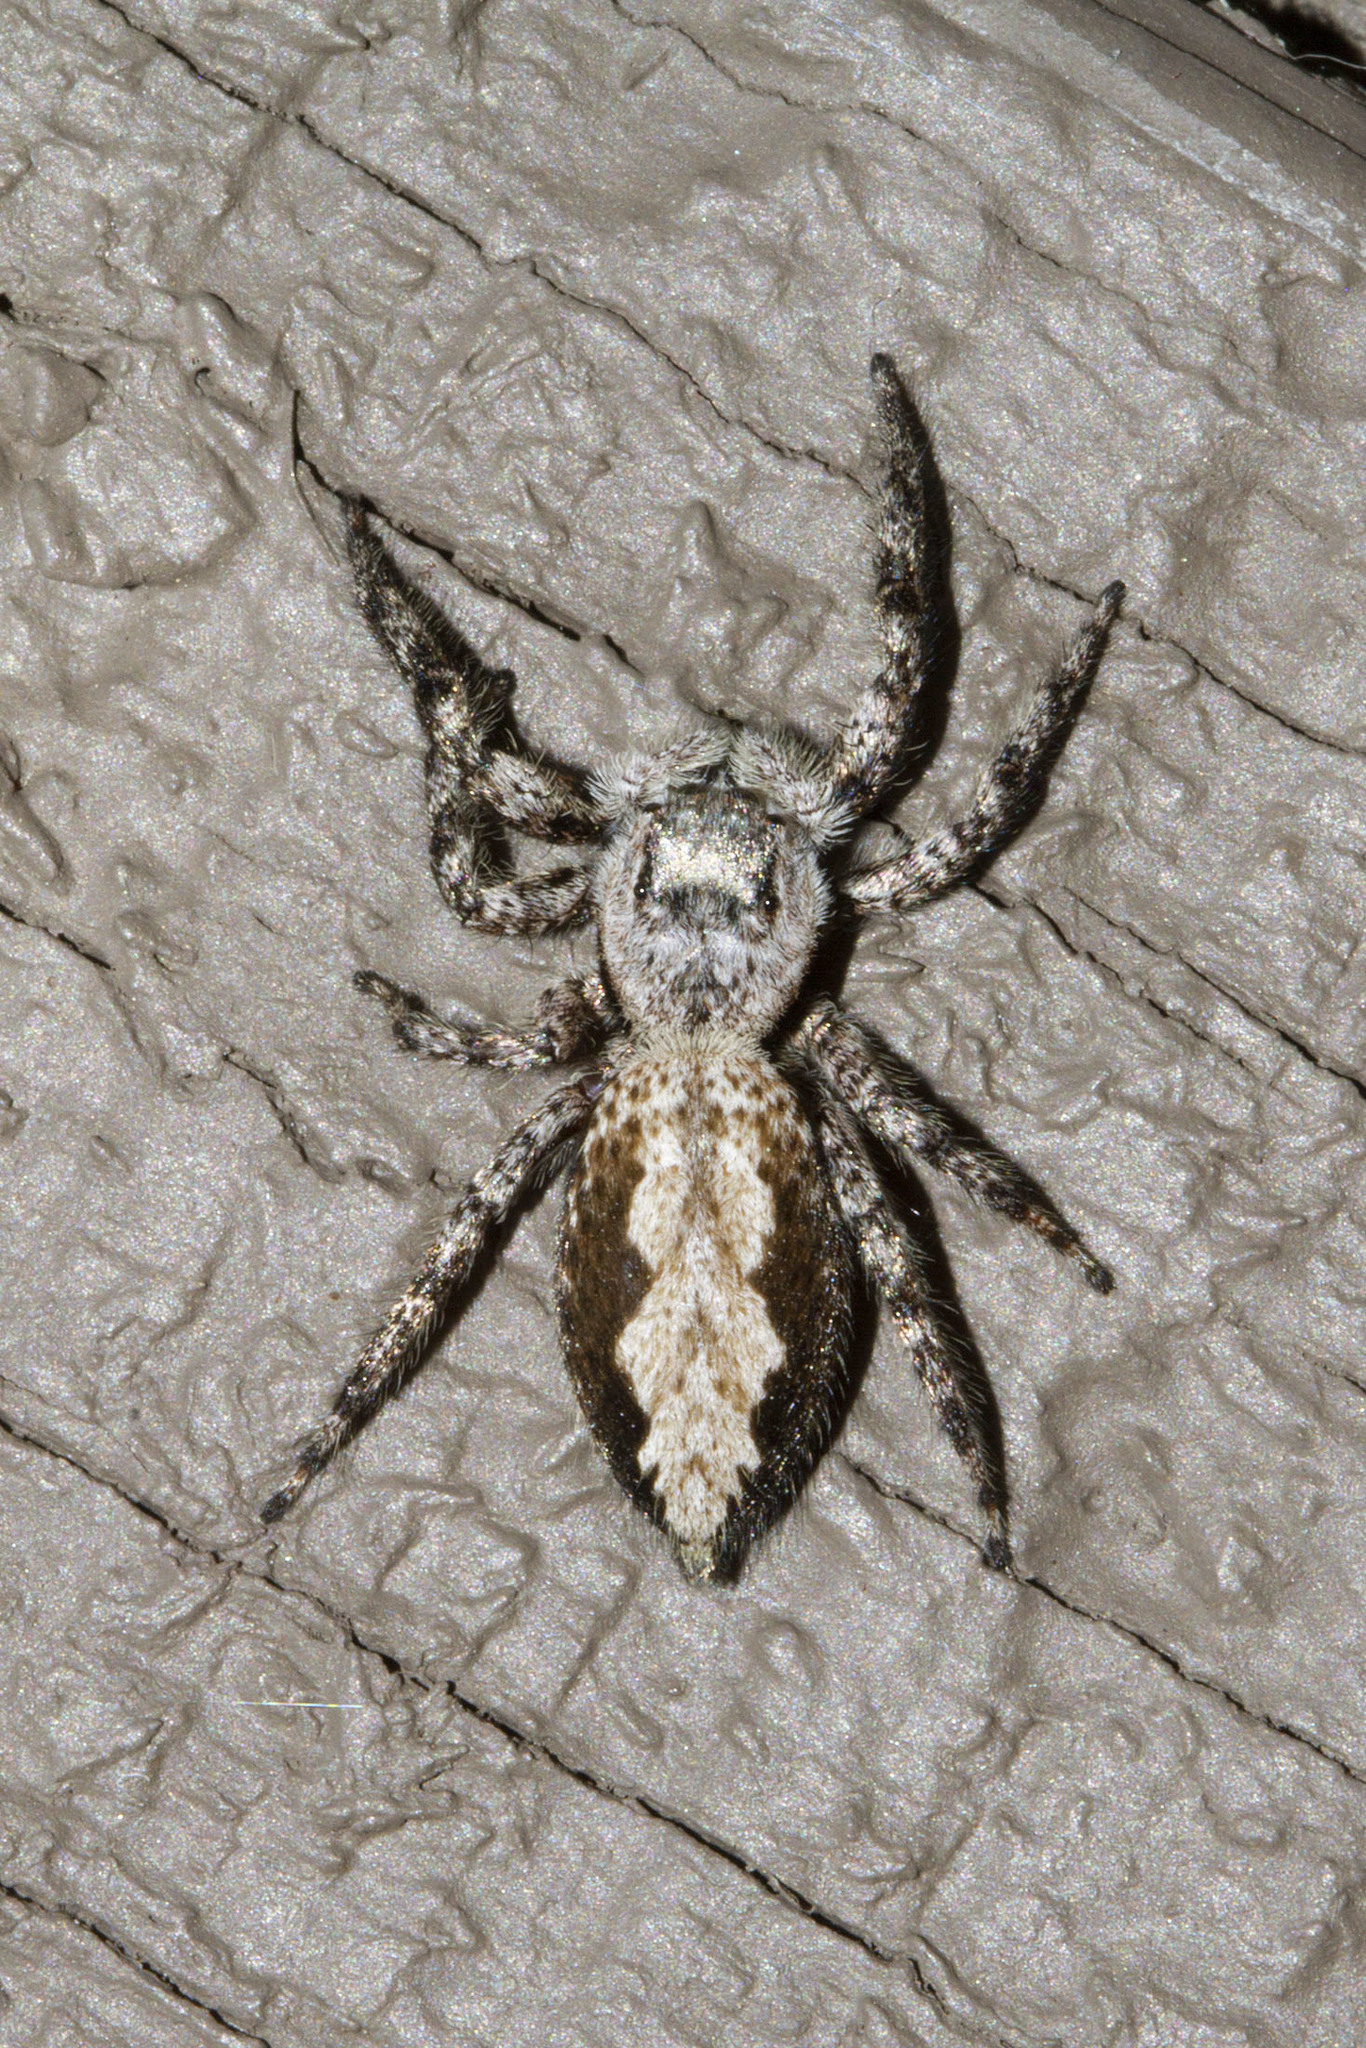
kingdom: Animalia
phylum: Arthropoda
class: Arachnida
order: Araneae
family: Salticidae
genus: Platycryptus
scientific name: Platycryptus undatus
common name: Tan jumping spider
